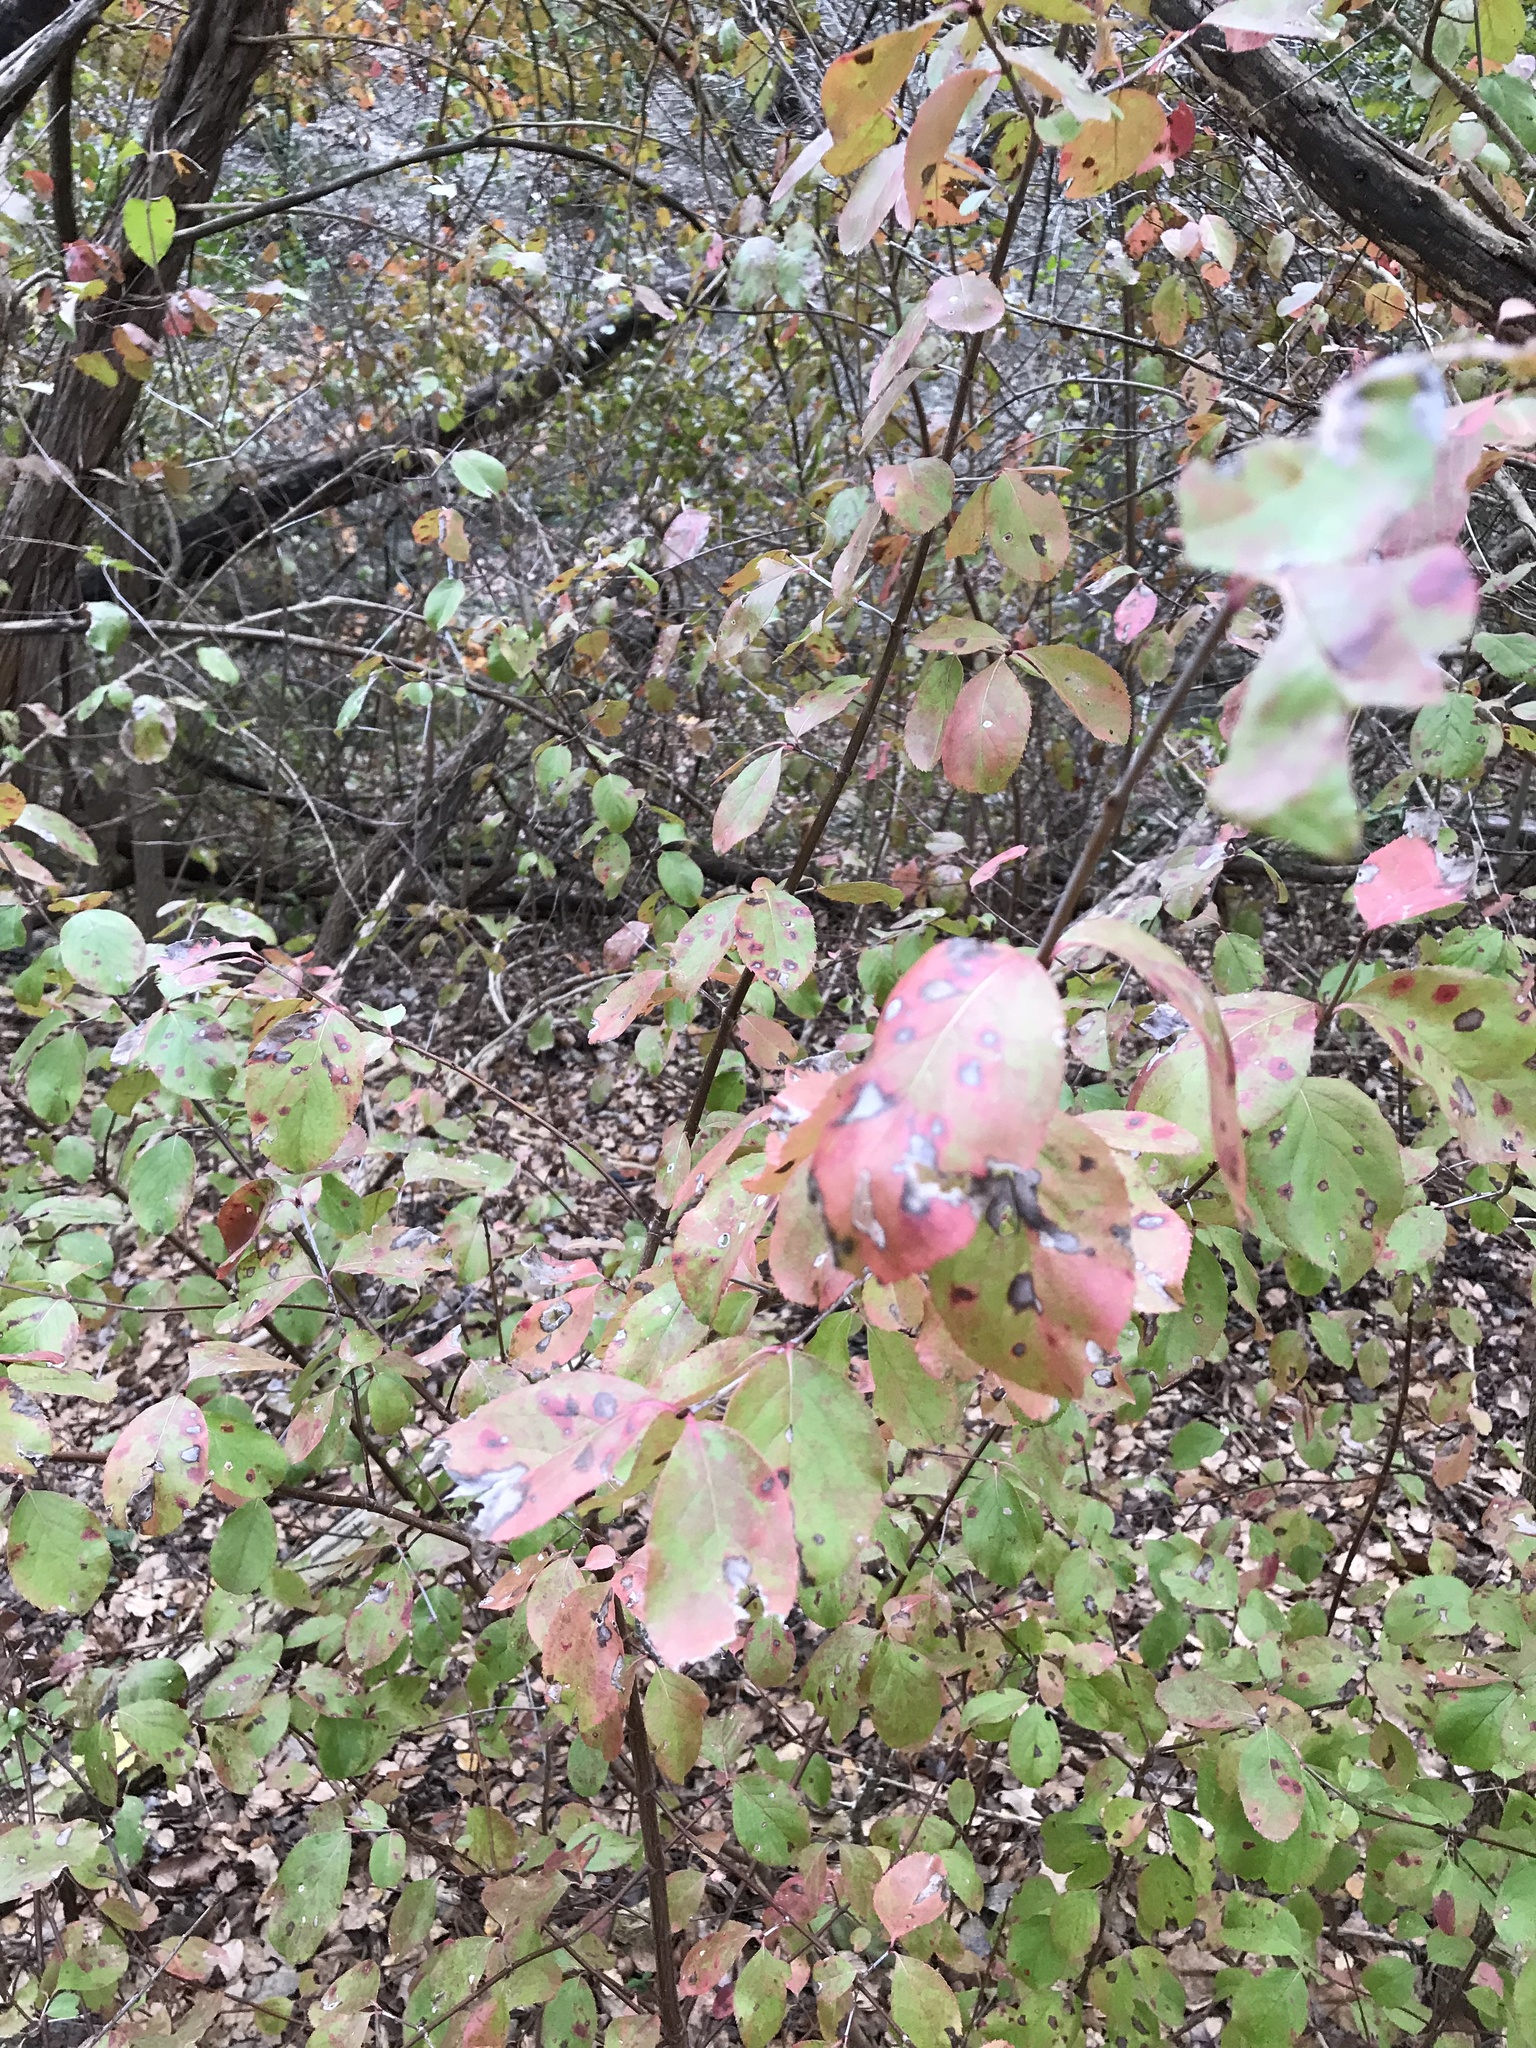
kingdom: Plantae
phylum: Tracheophyta
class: Magnoliopsida
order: Dipsacales
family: Viburnaceae
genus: Viburnum
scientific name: Viburnum rufidulum
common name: Blue haw
